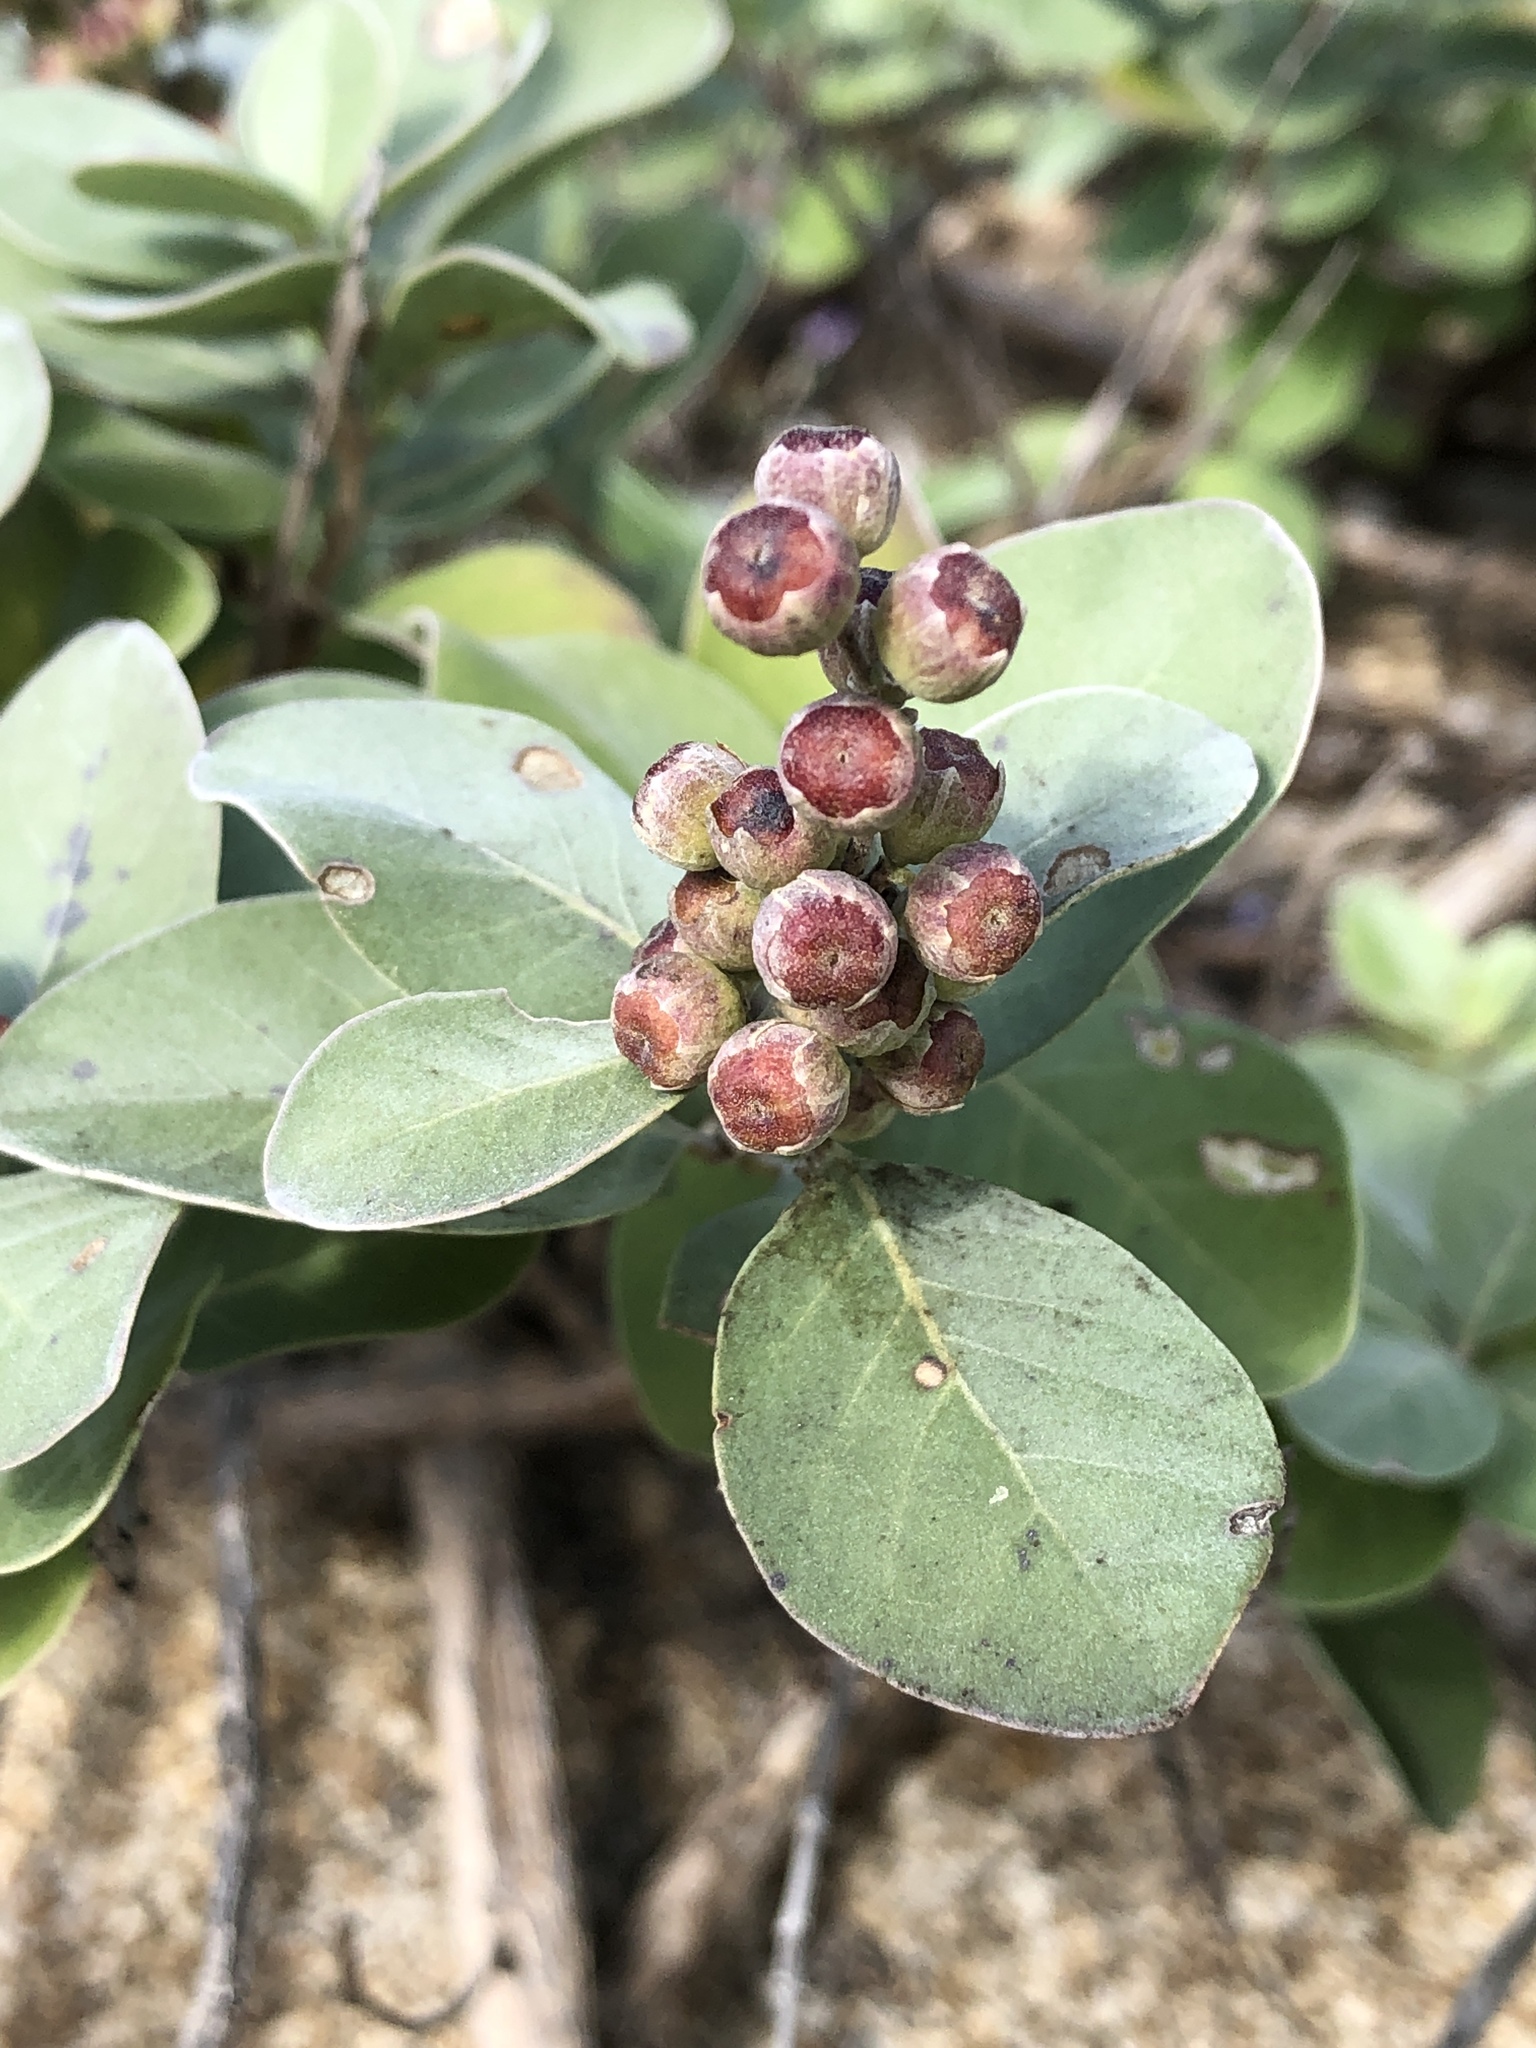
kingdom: Plantae
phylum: Tracheophyta
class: Magnoliopsida
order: Lamiales
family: Lamiaceae
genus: Vitex
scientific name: Vitex rotundifolia
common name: Beach vitex
